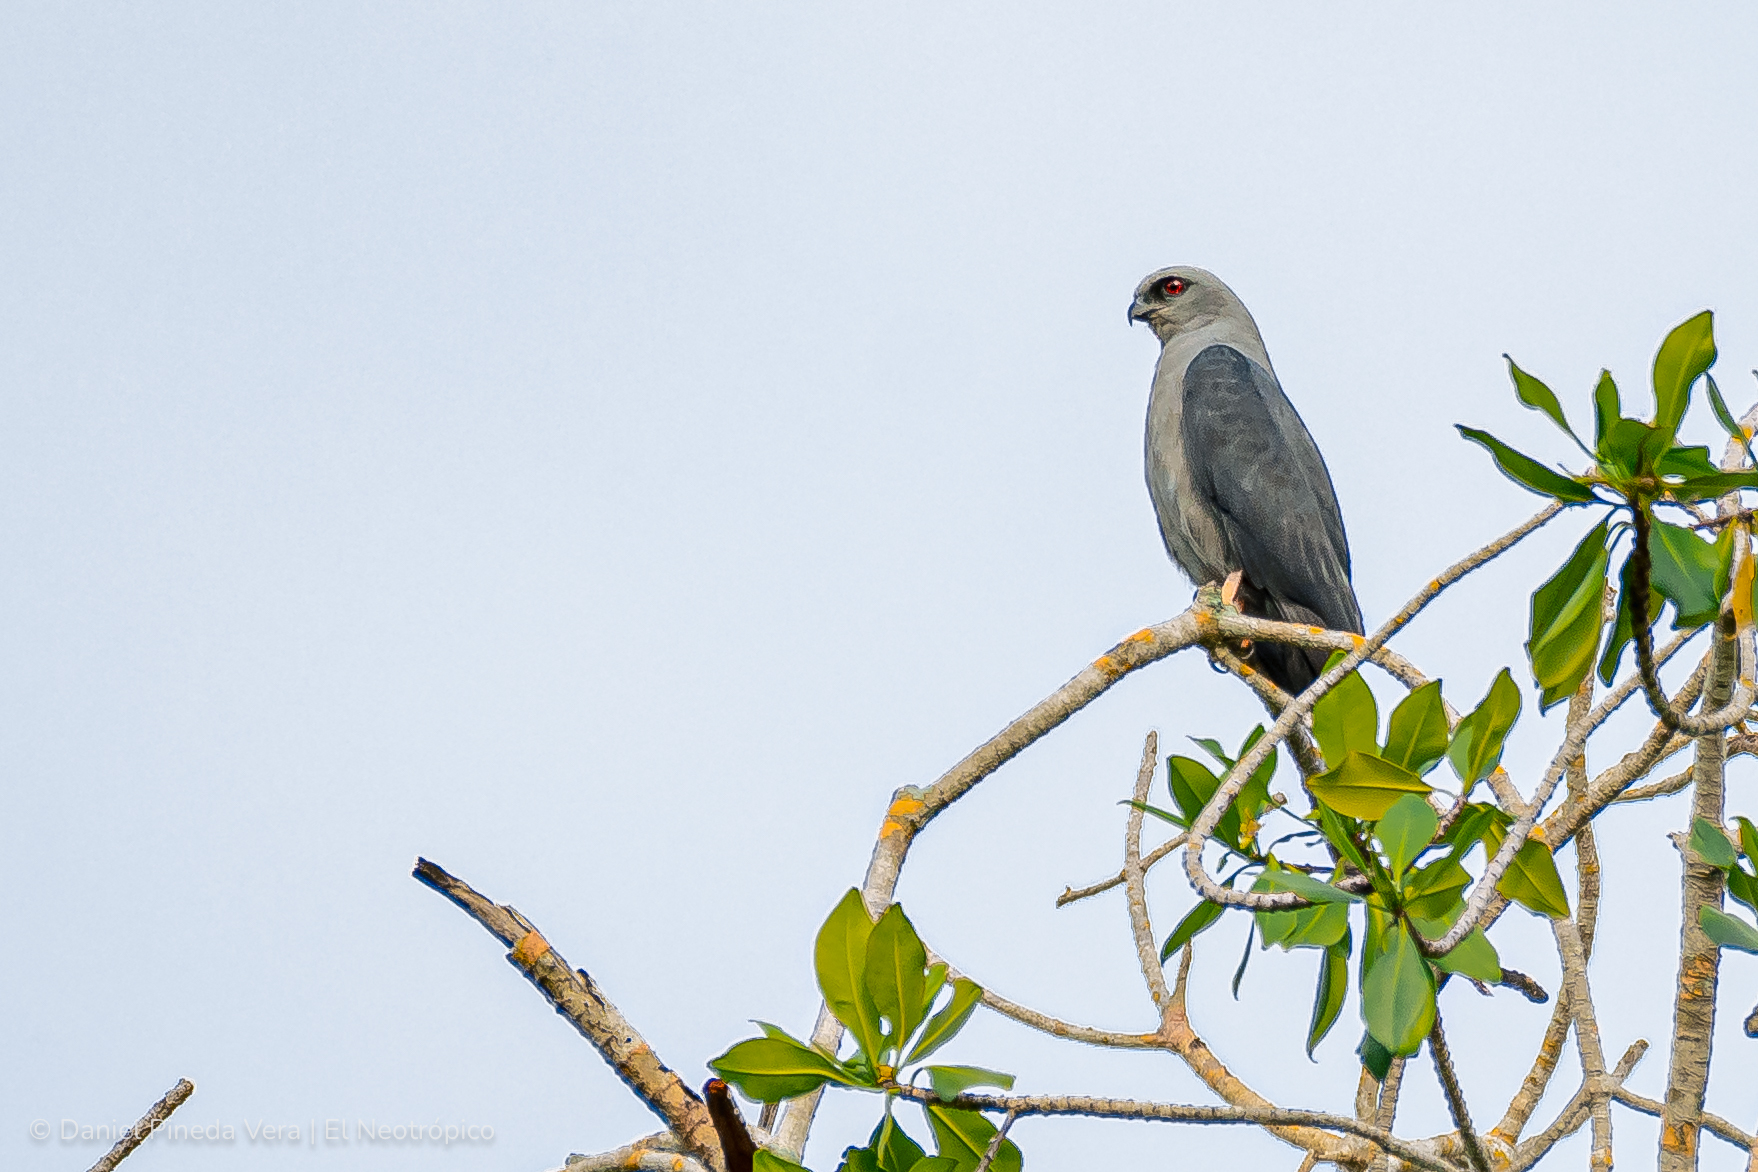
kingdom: Animalia
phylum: Chordata
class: Aves
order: Accipitriformes
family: Accipitridae
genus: Ictinia
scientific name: Ictinia plumbea
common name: Plumbeous kite
